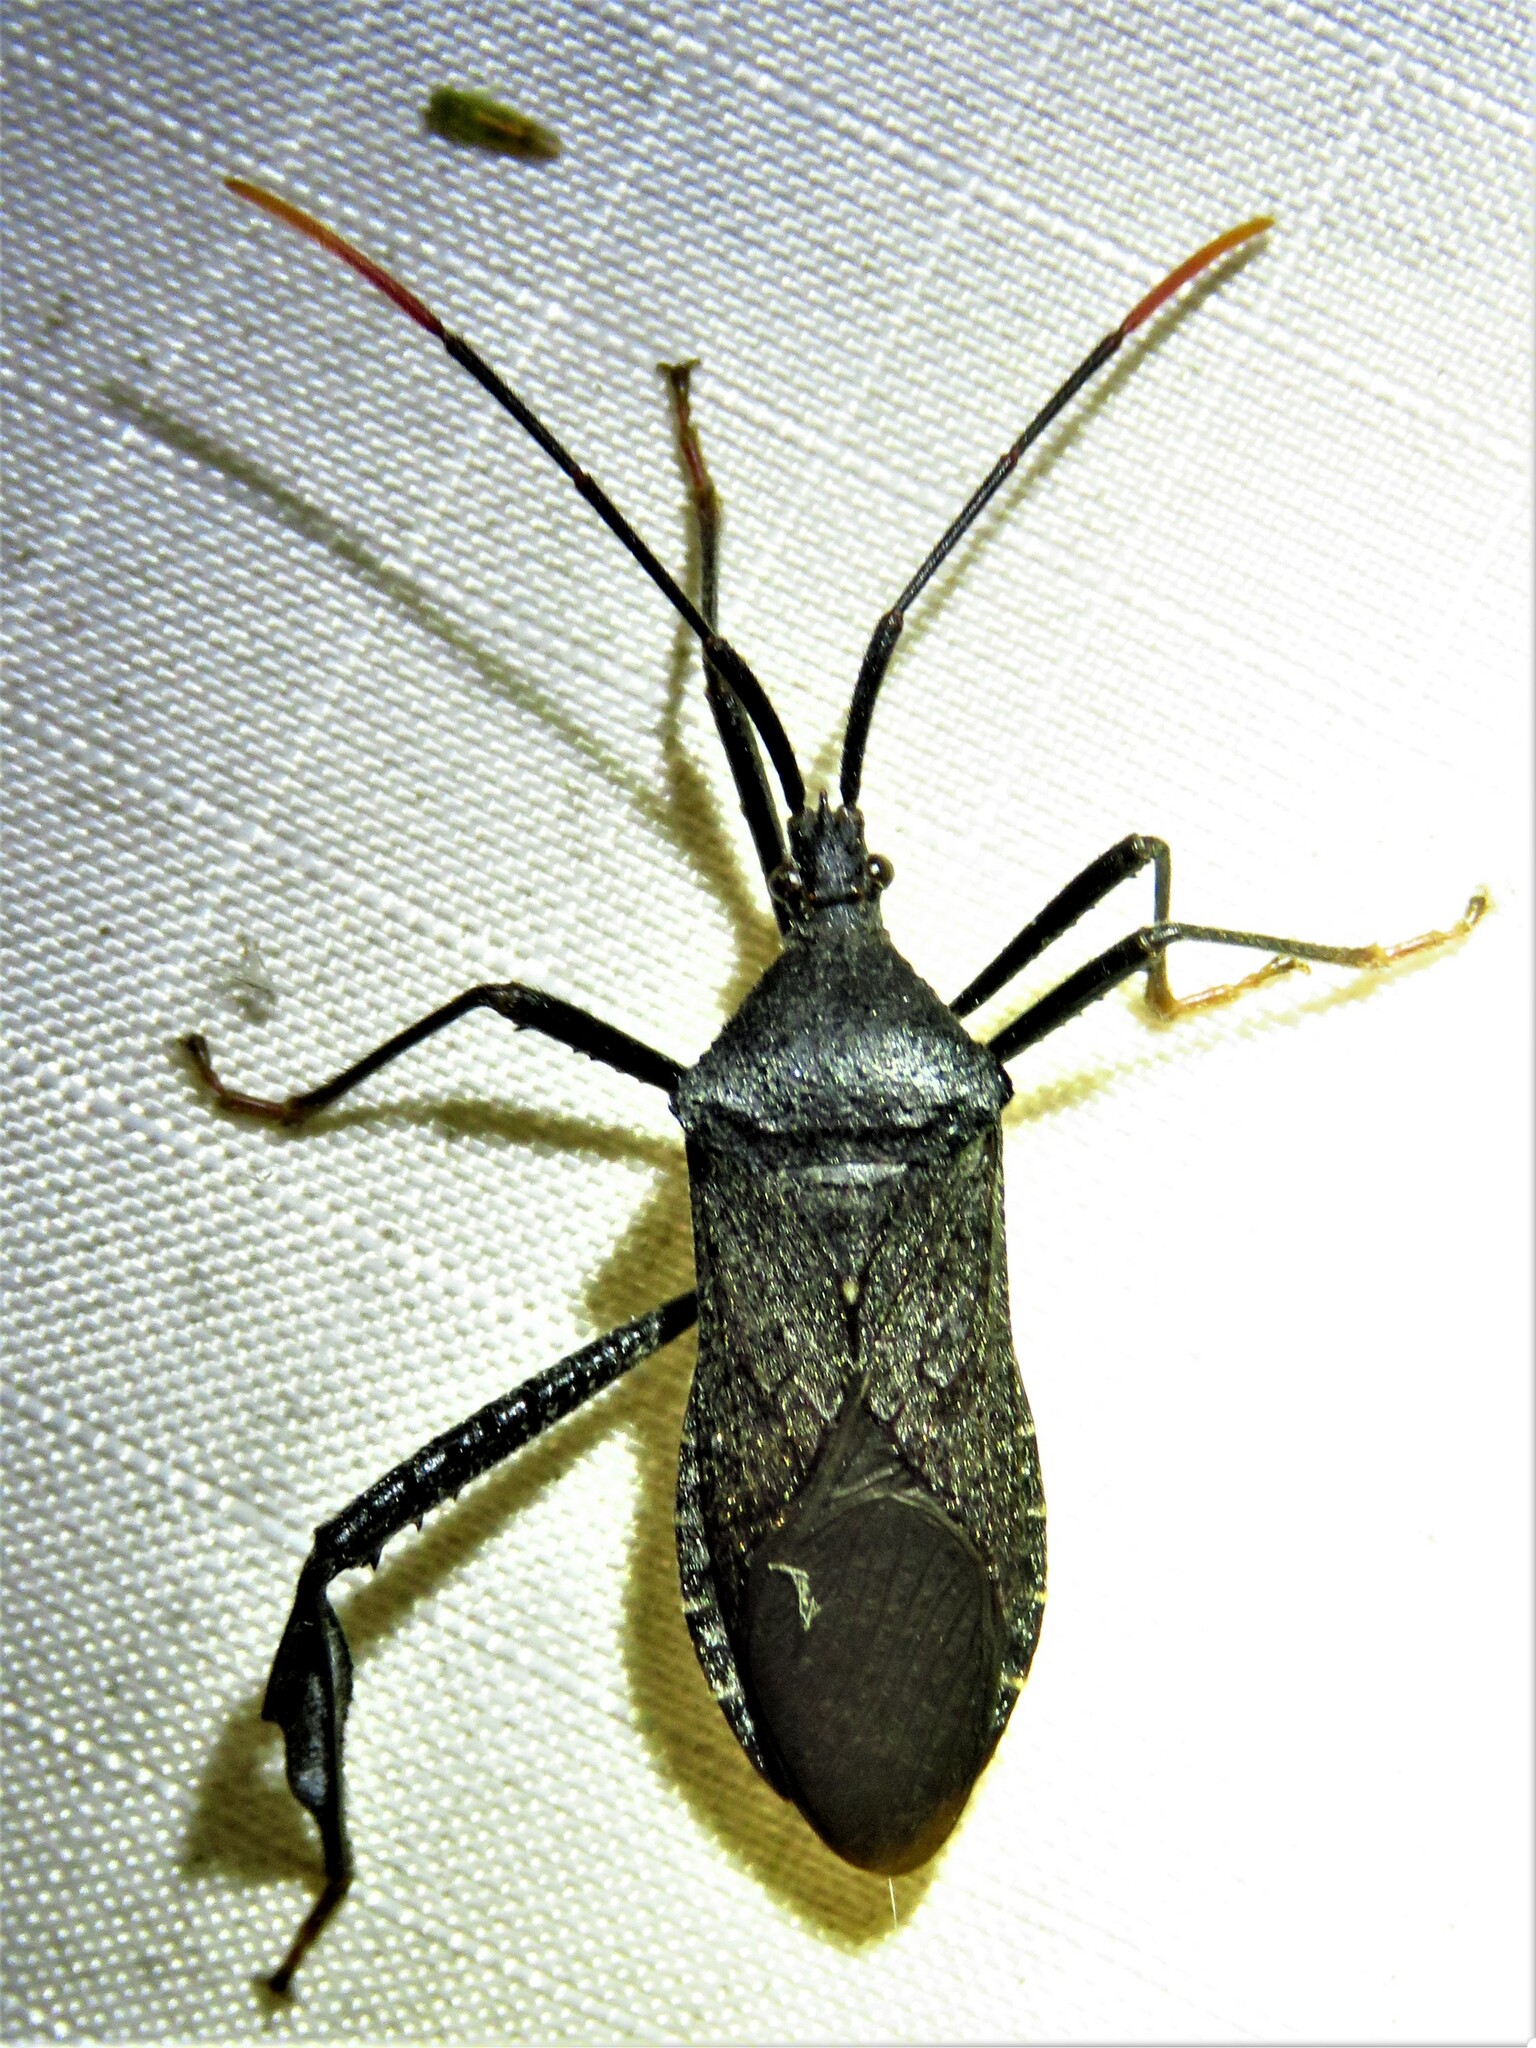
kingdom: Animalia
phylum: Arthropoda
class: Insecta
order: Hemiptera
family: Coreidae
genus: Acanthocephala
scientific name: Acanthocephala terminalis
